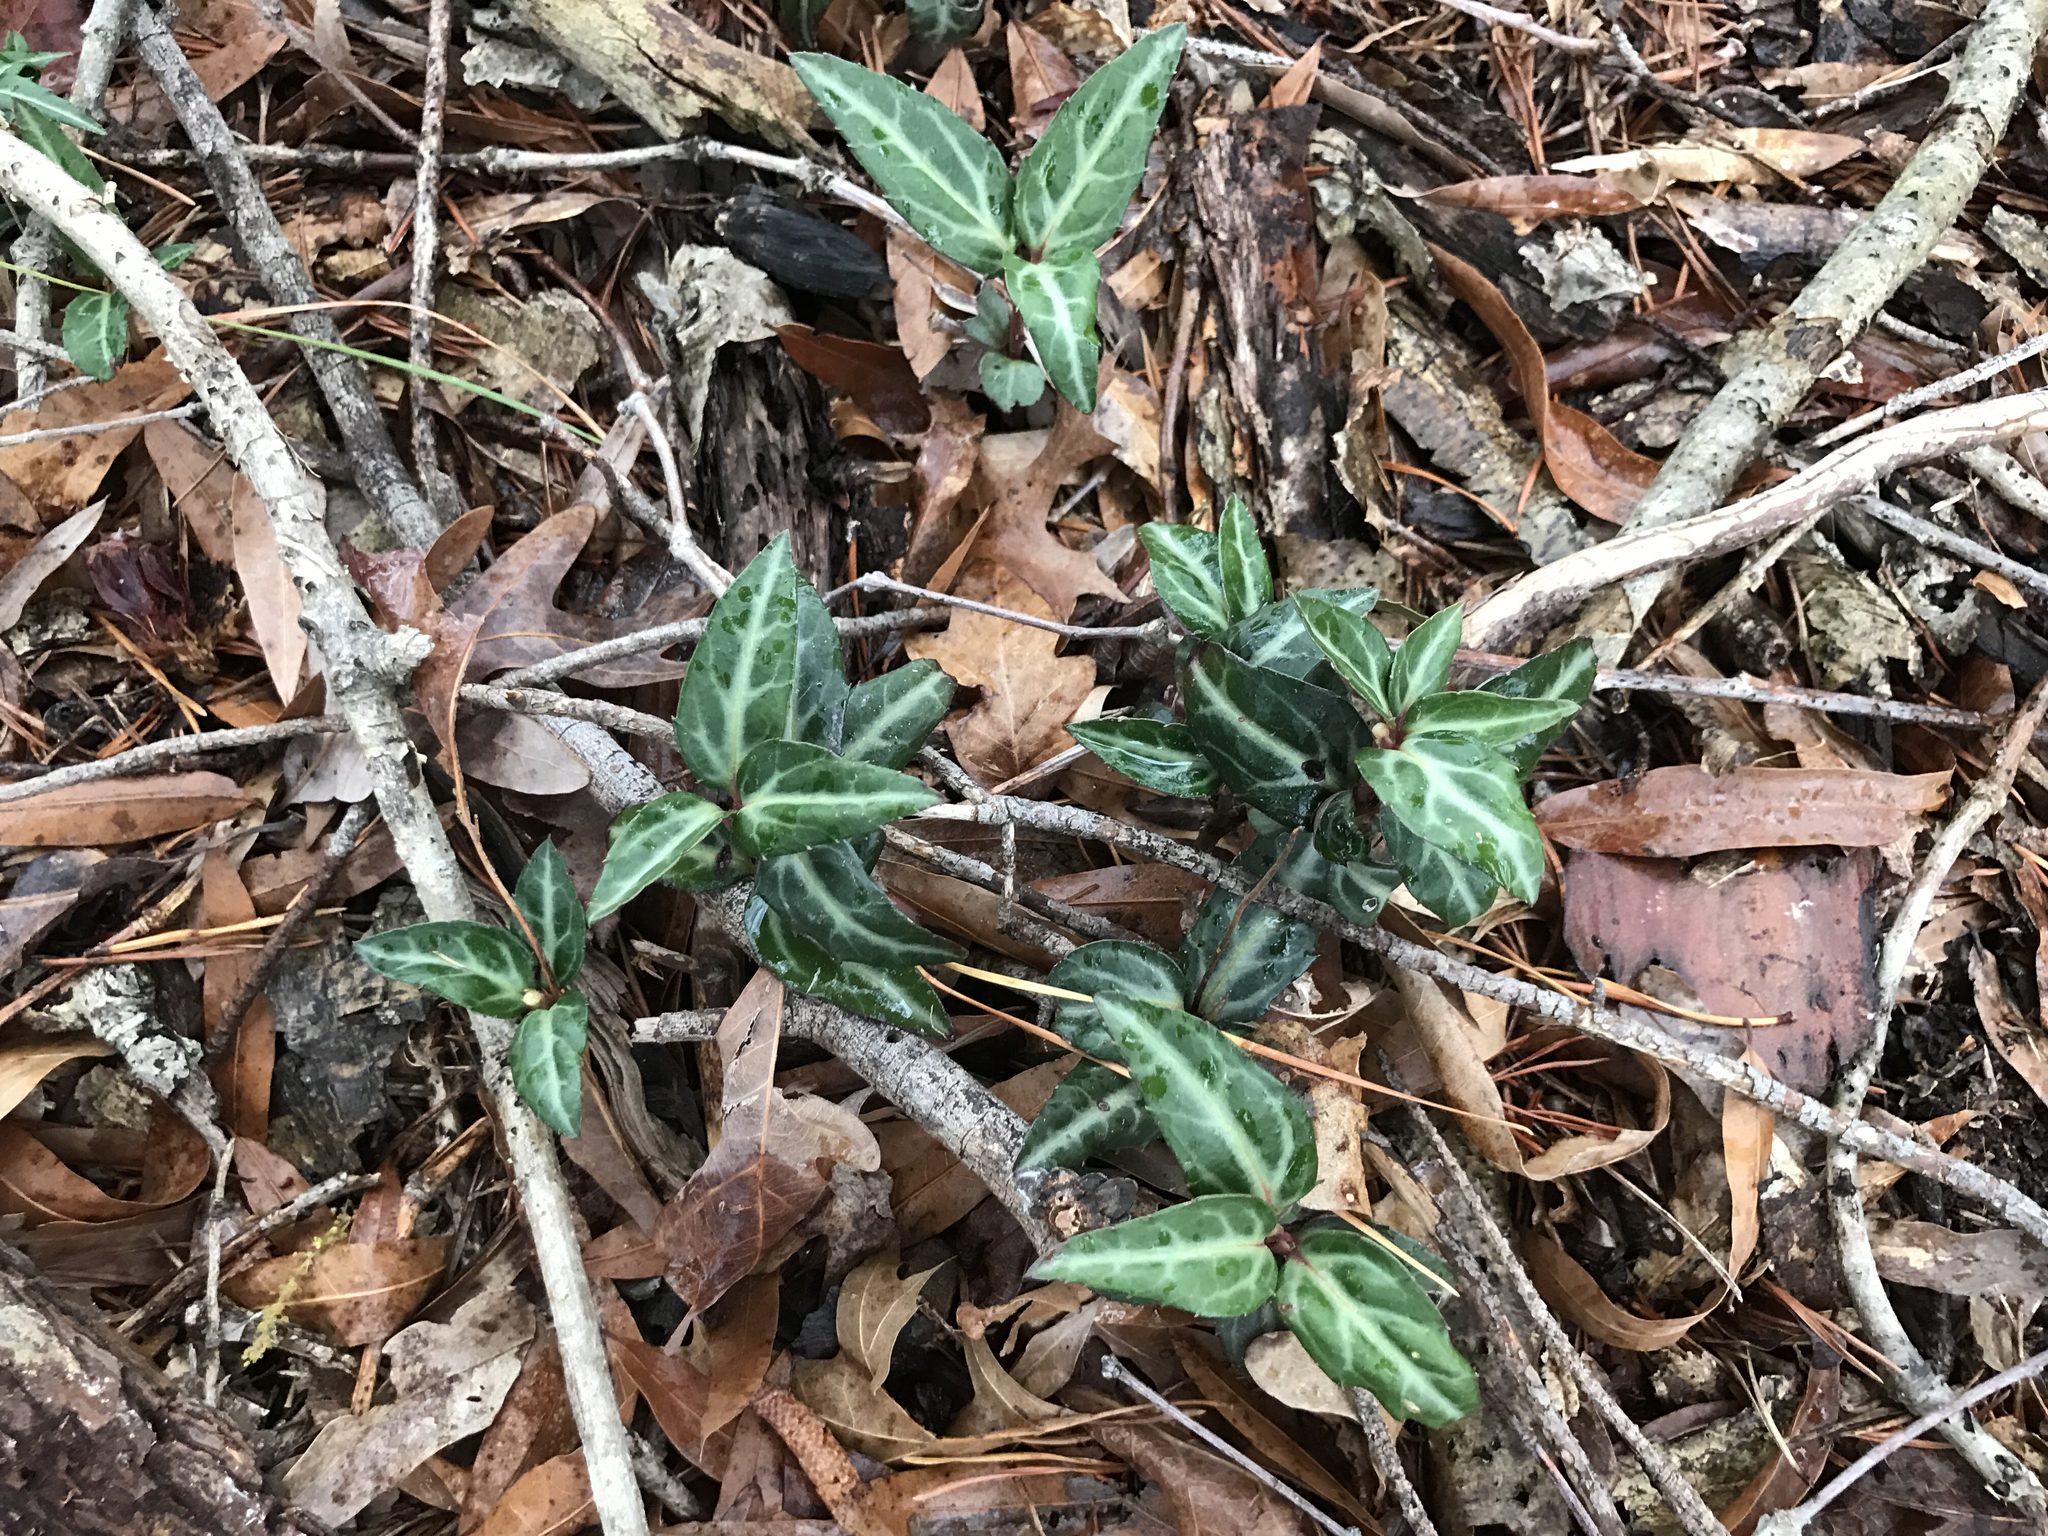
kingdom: Plantae
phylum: Tracheophyta
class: Magnoliopsida
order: Ericales
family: Ericaceae
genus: Chimaphila
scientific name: Chimaphila maculata
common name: Spotted pipsissewa
